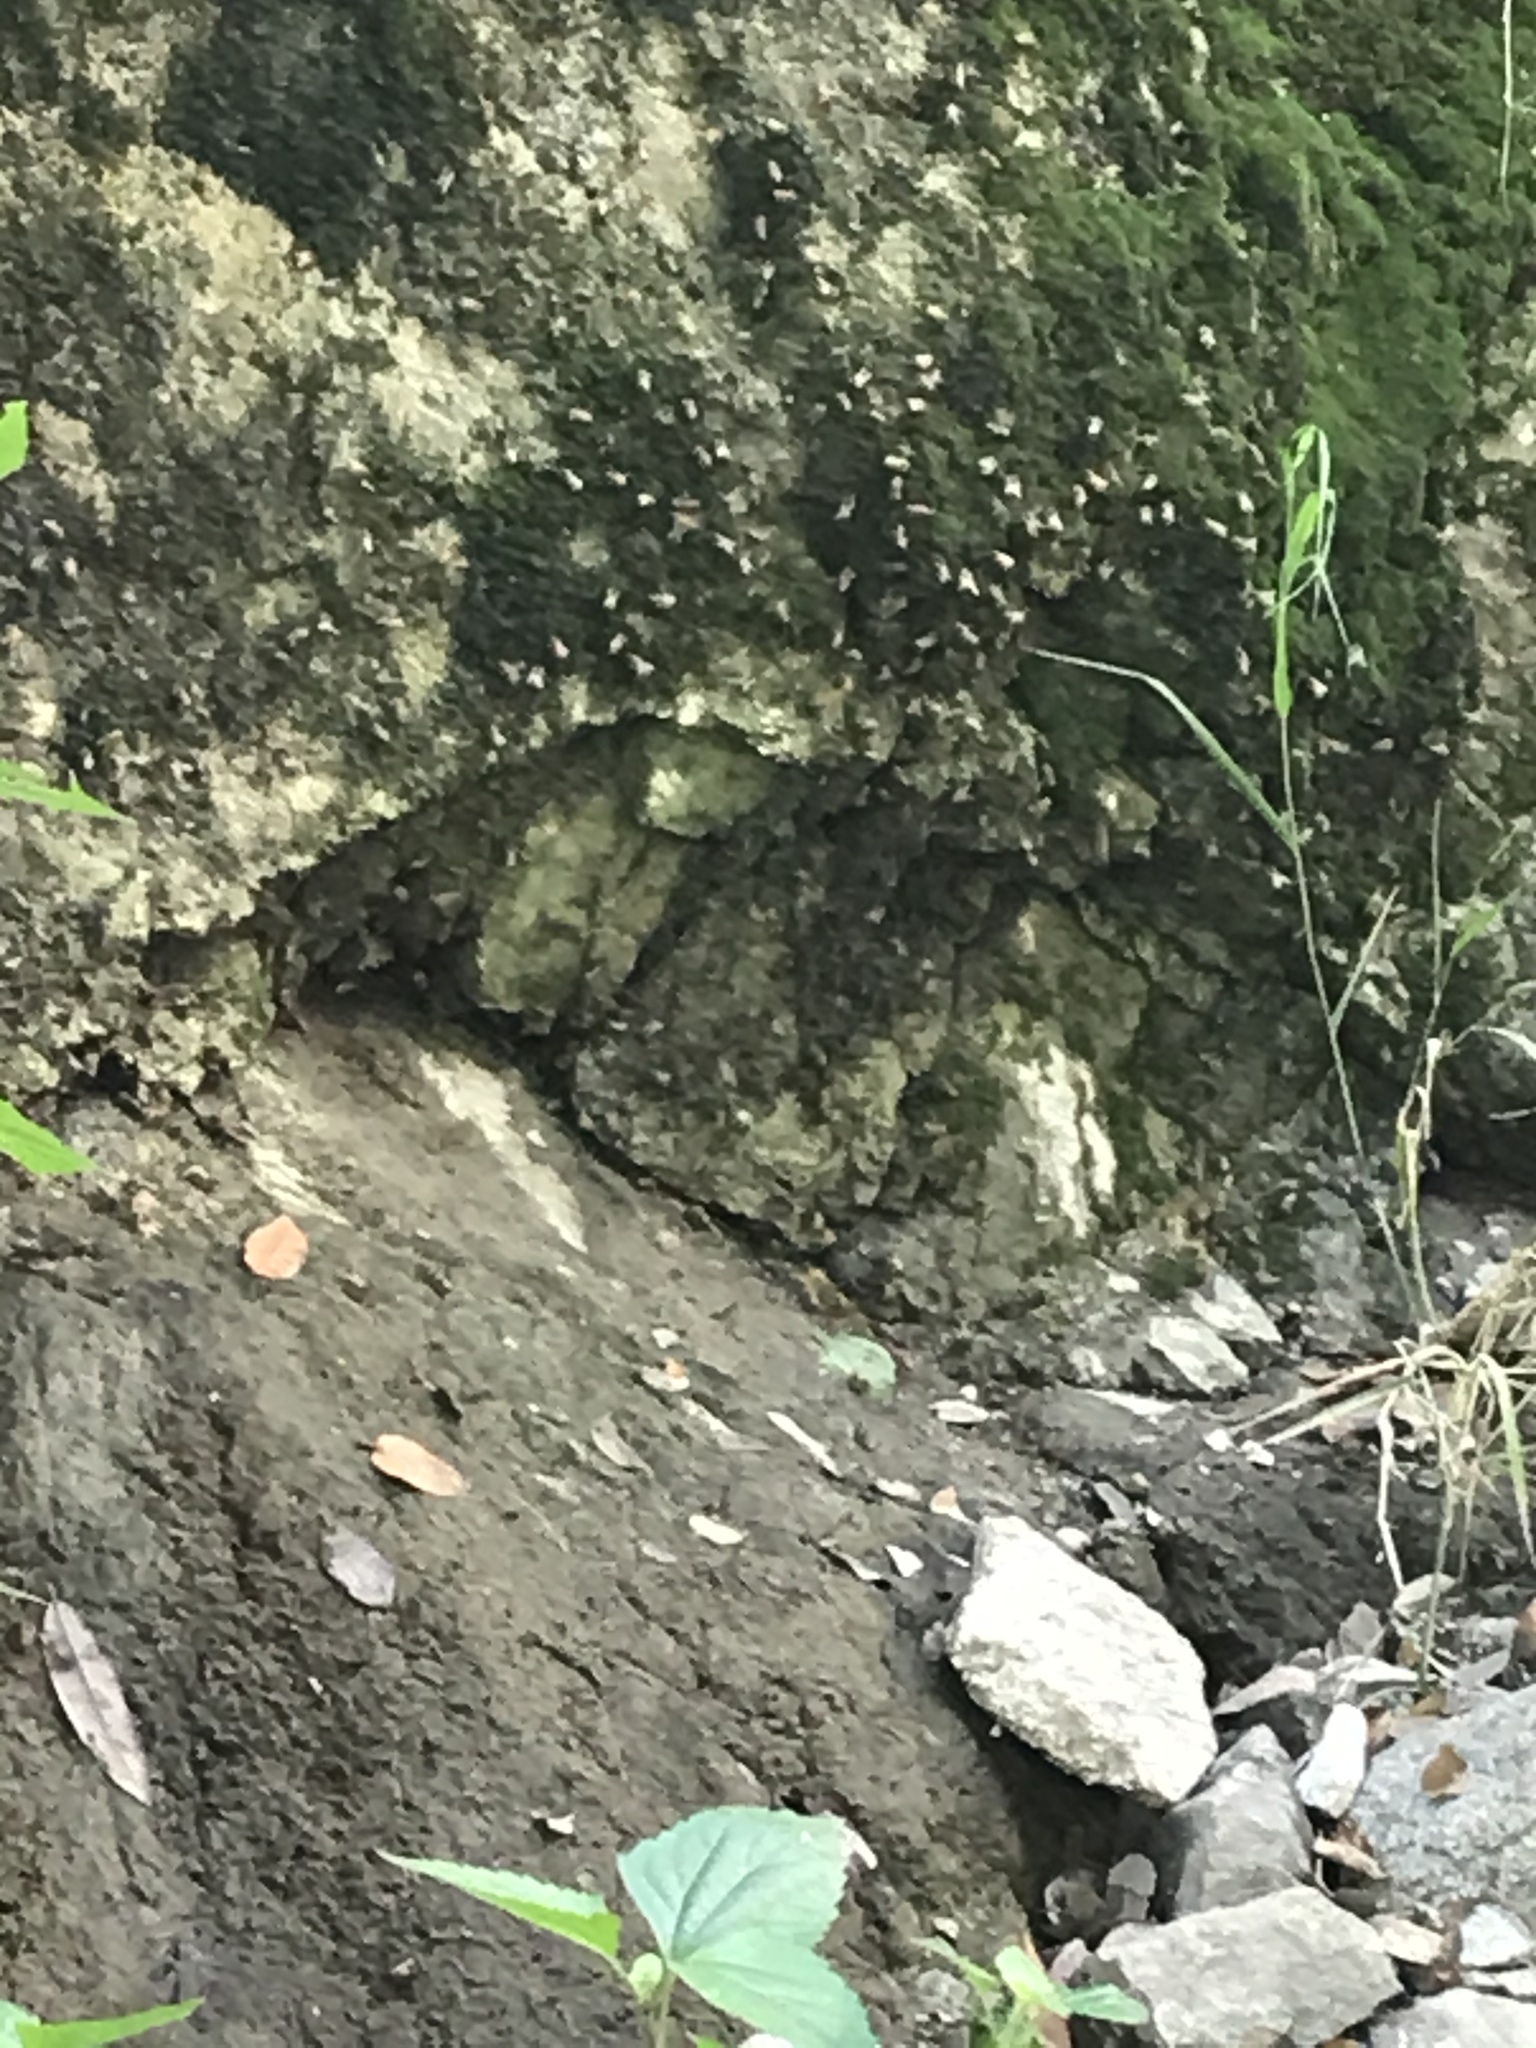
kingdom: Animalia
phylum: Arthropoda
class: Insecta
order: Hymenoptera
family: Apidae
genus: Apis
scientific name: Apis mellifera
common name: Honey bee
